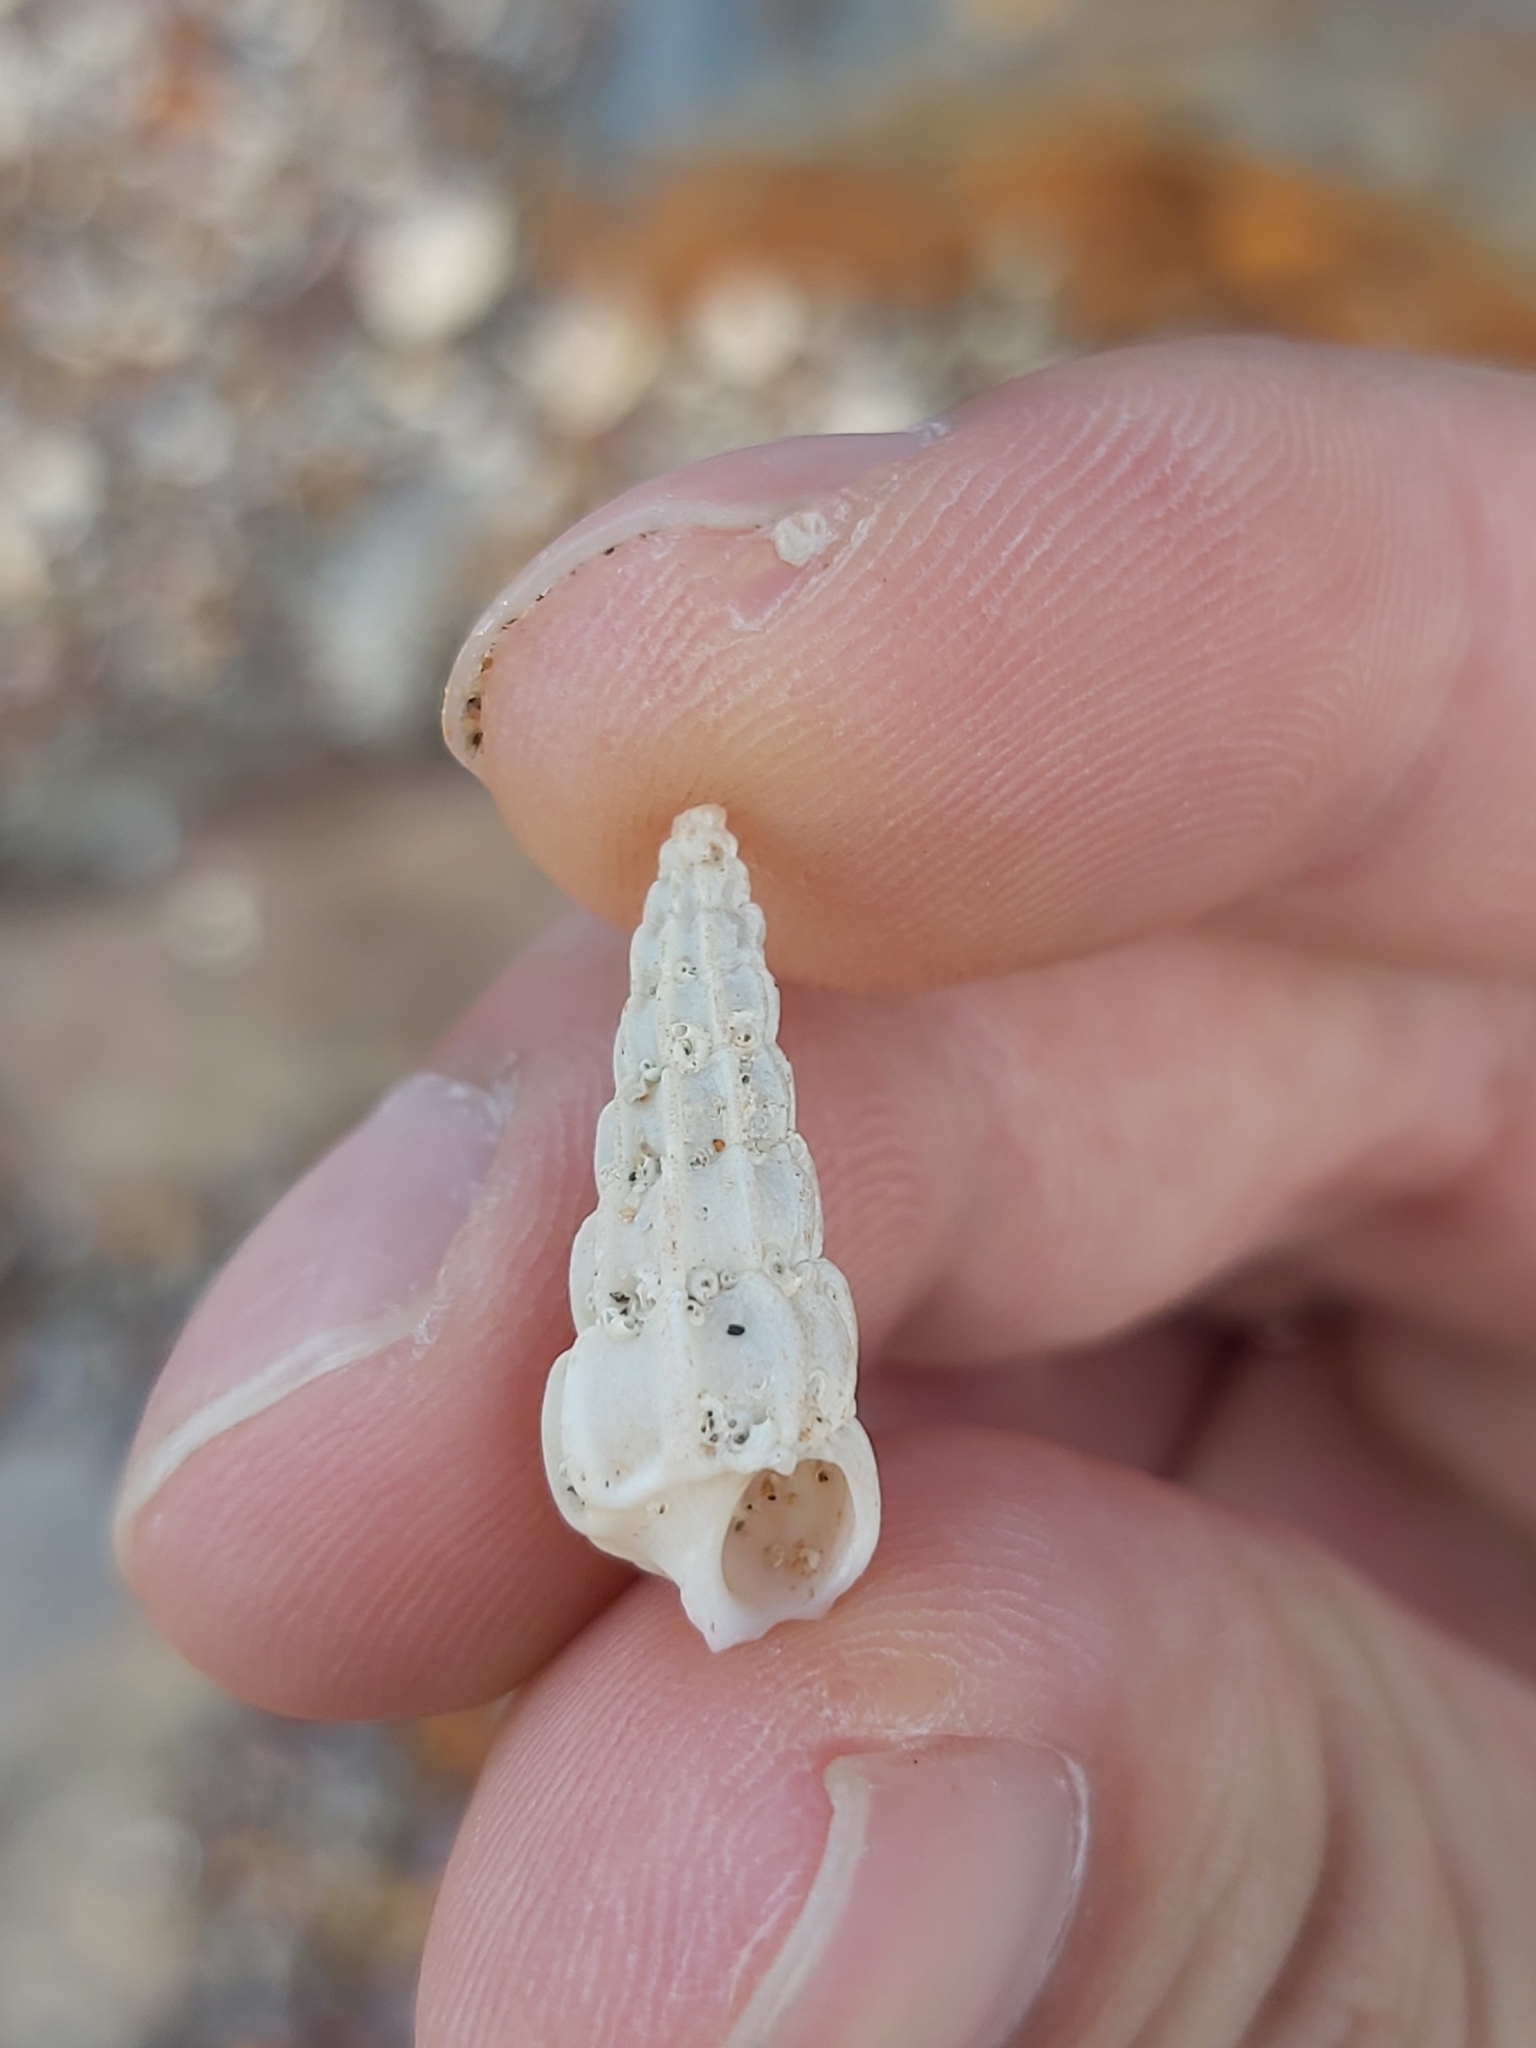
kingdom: Animalia
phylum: Mollusca
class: Gastropoda
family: Epitoniidae
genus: Opalia
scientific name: Opalia australis
